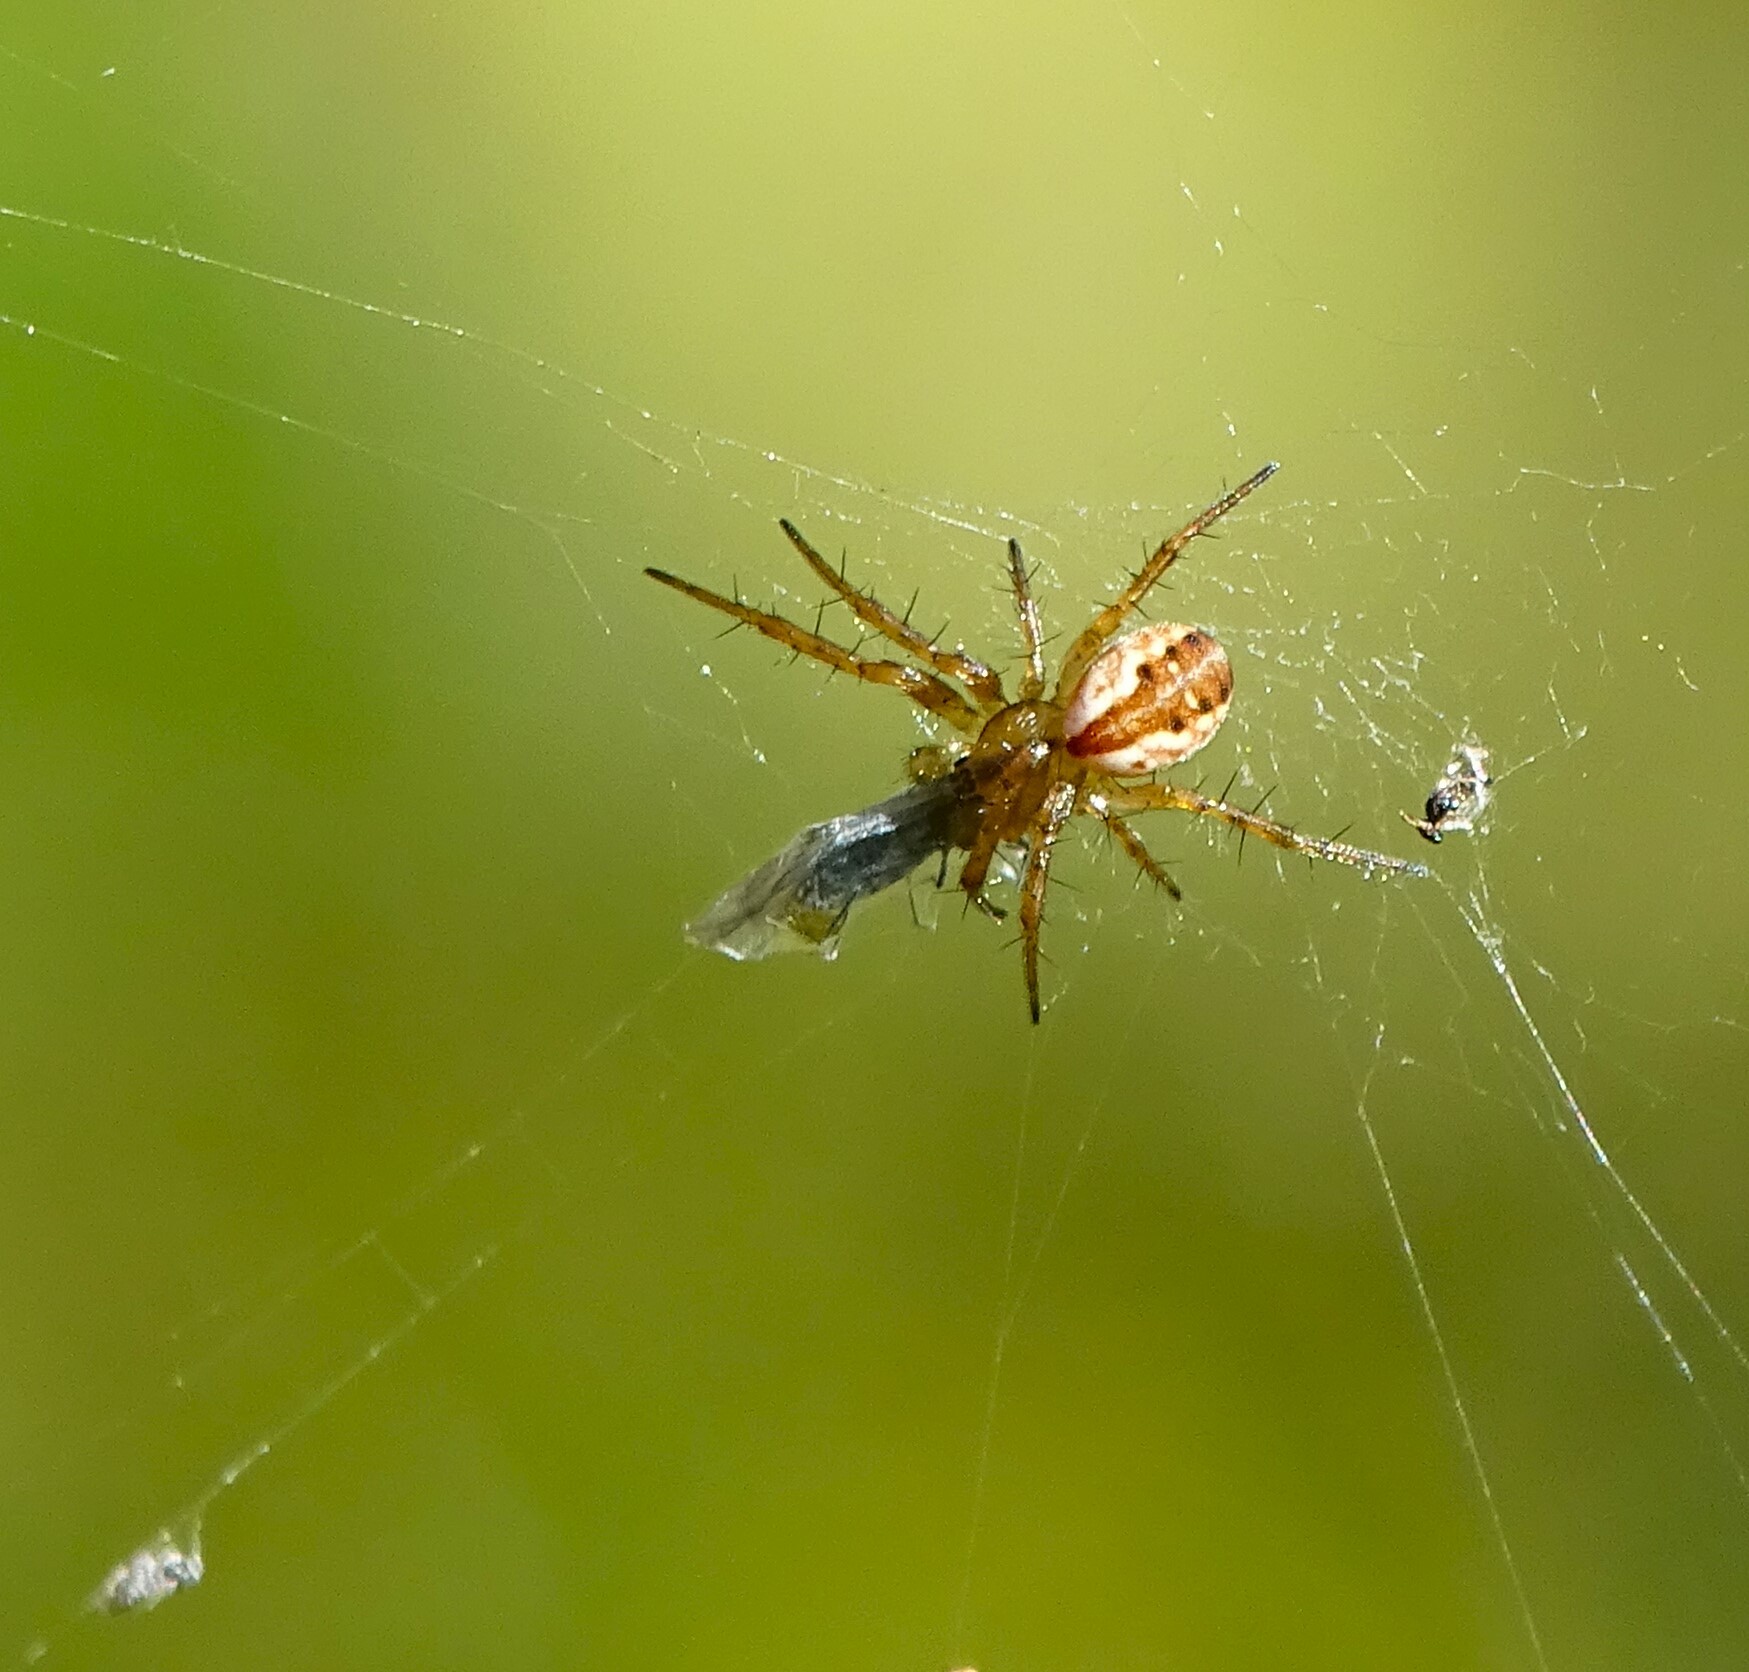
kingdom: Animalia
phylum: Arthropoda
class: Arachnida
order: Araneae
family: Araneidae
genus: Mangora
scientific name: Mangora placida
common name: Tuft-legged orbweaver
